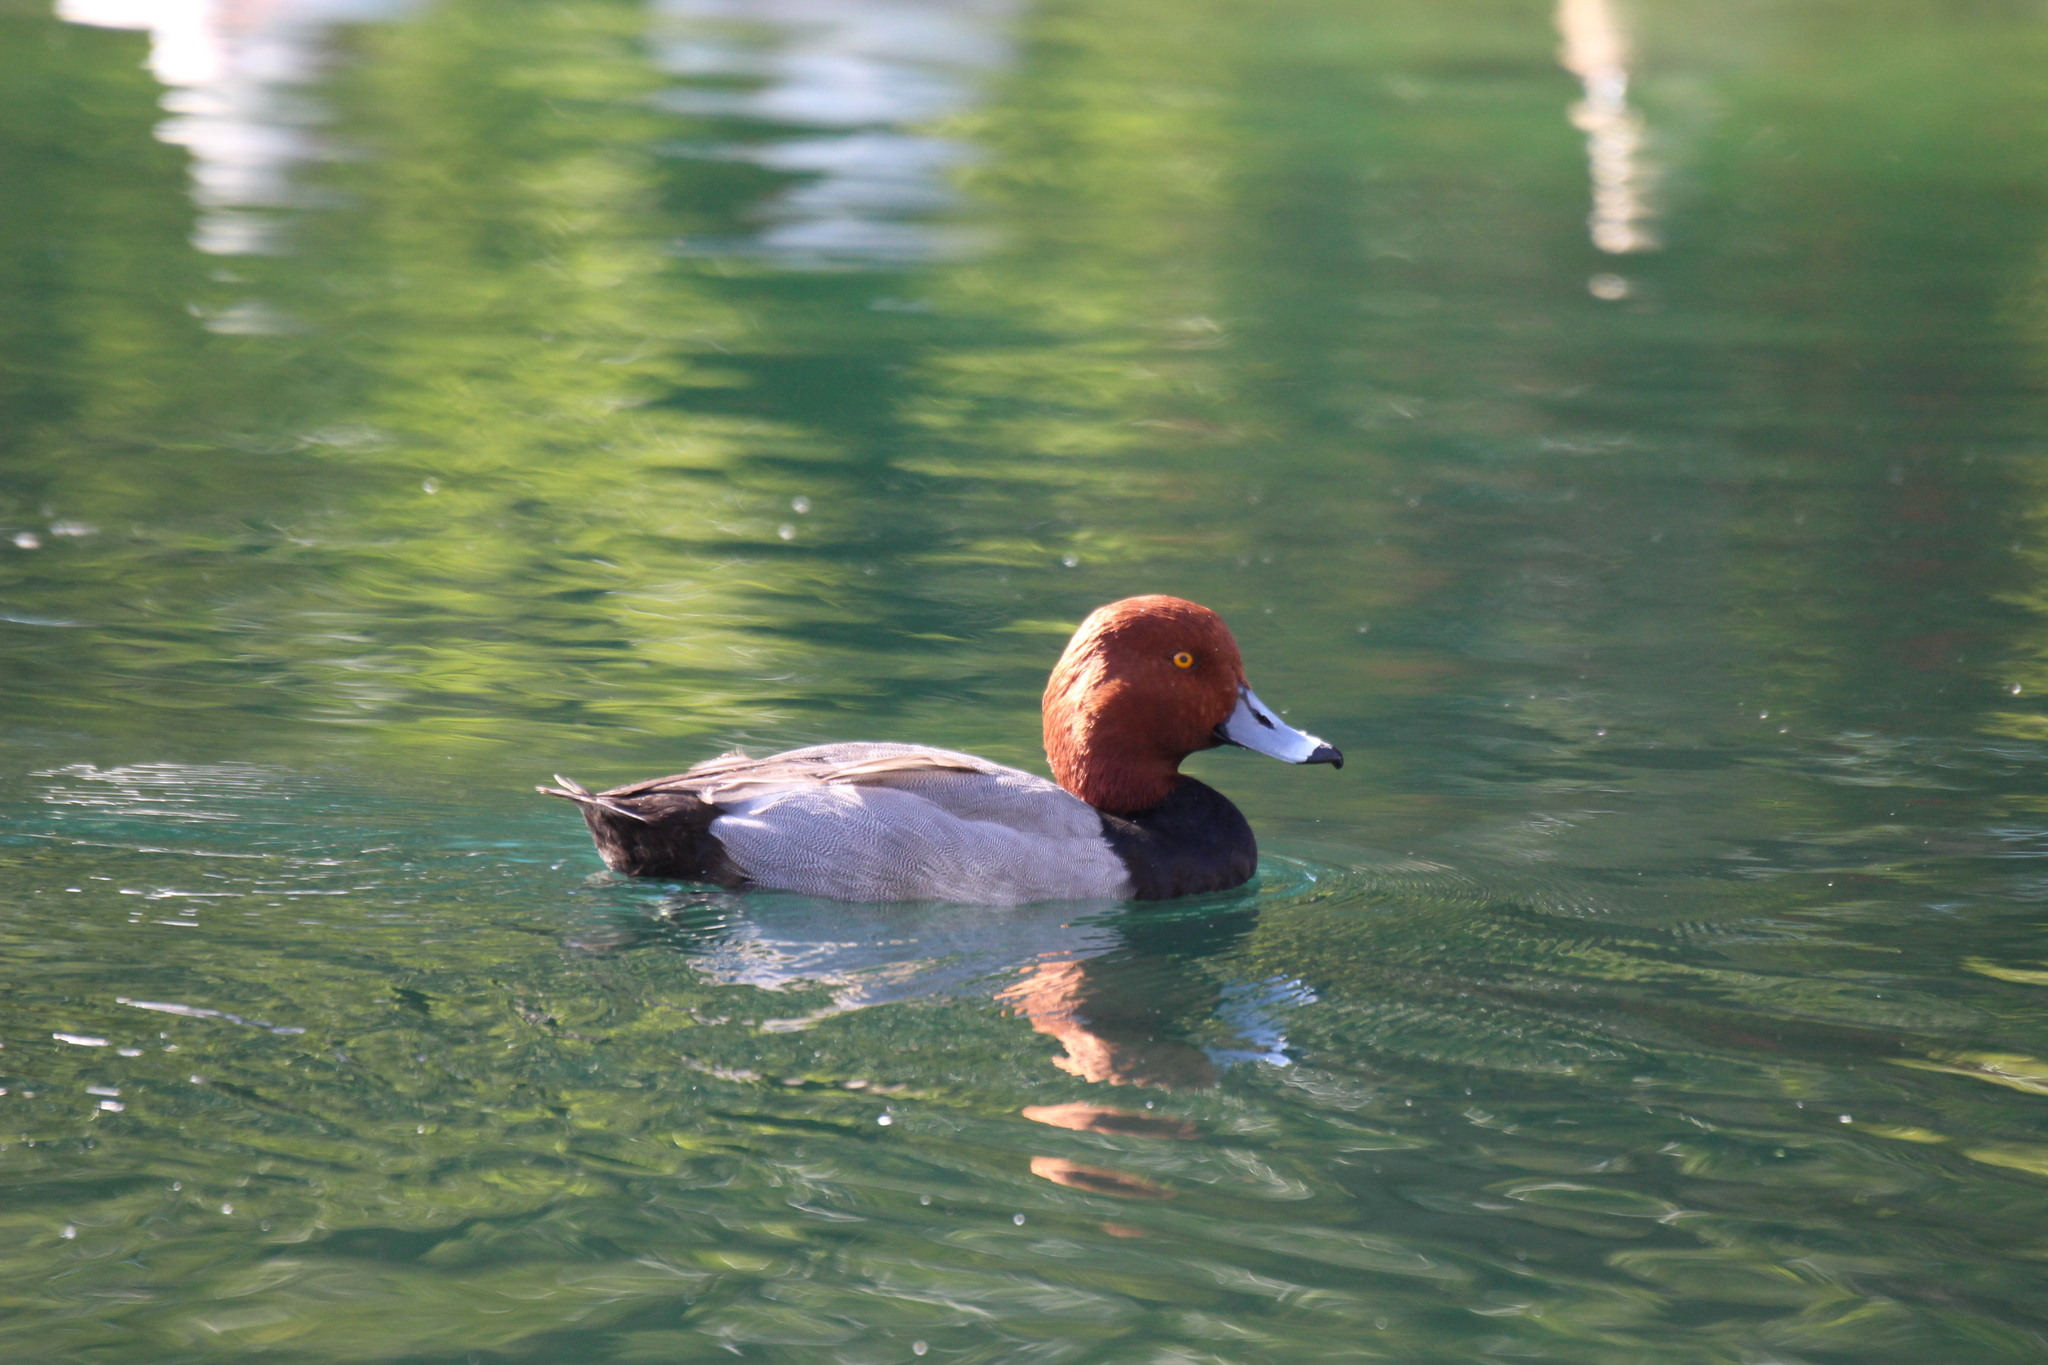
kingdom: Animalia
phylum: Chordata
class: Aves
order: Anseriformes
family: Anatidae
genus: Aythya
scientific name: Aythya americana
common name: Redhead
